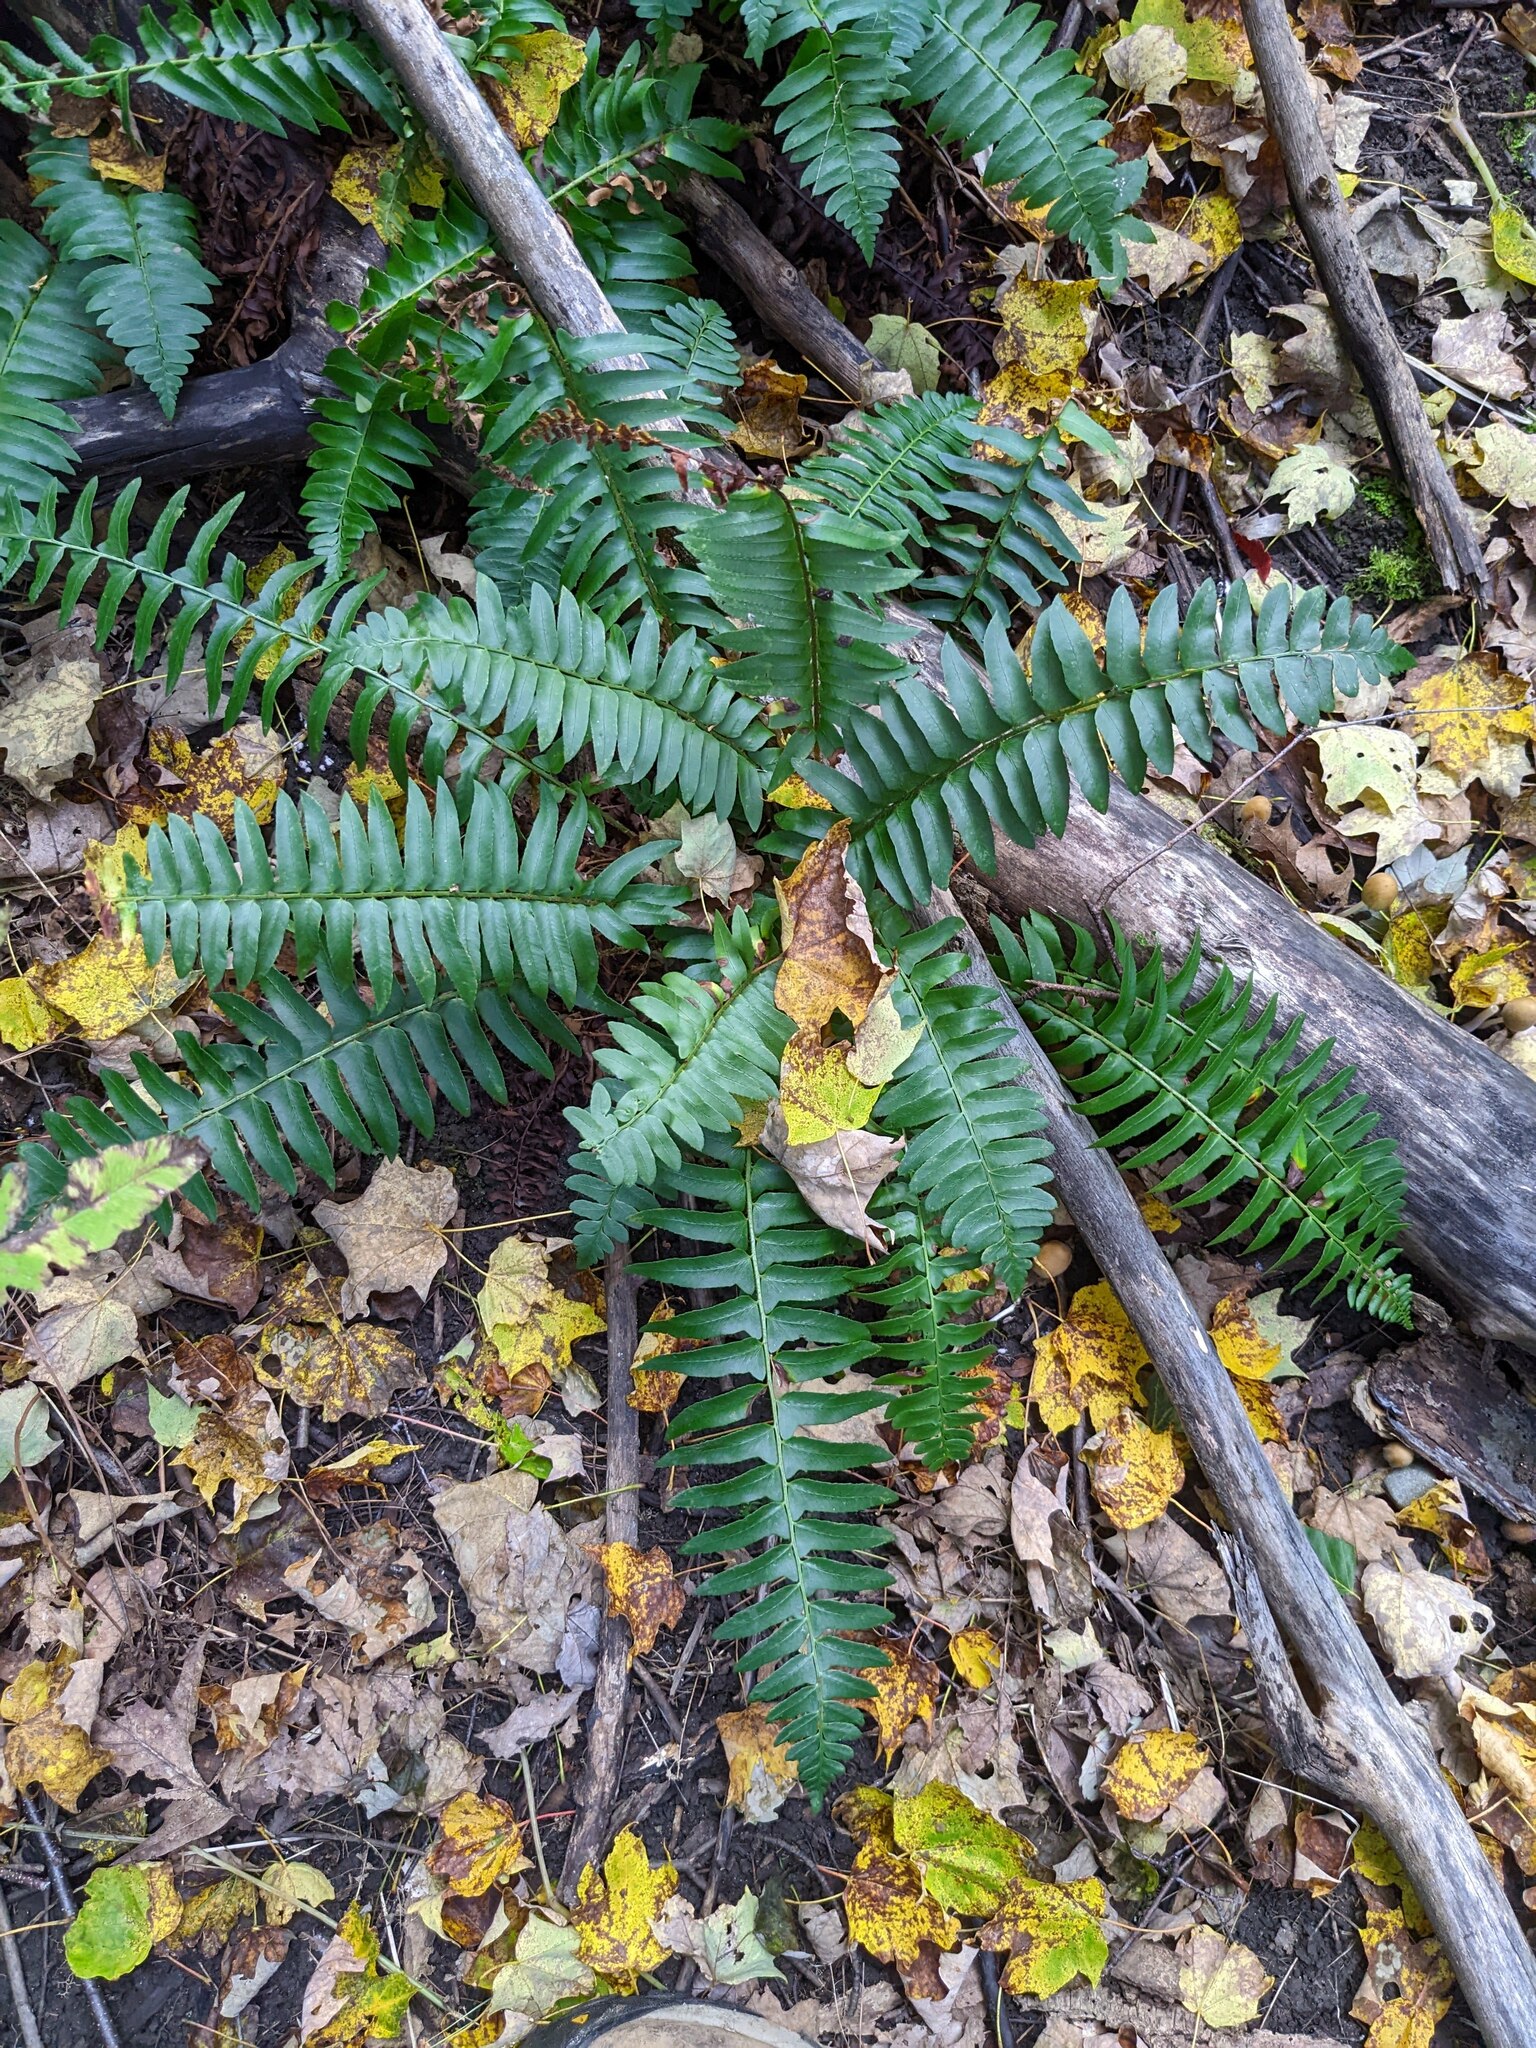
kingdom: Plantae
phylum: Tracheophyta
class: Polypodiopsida
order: Polypodiales
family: Dryopteridaceae
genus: Polystichum
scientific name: Polystichum acrostichoides
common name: Christmas fern
